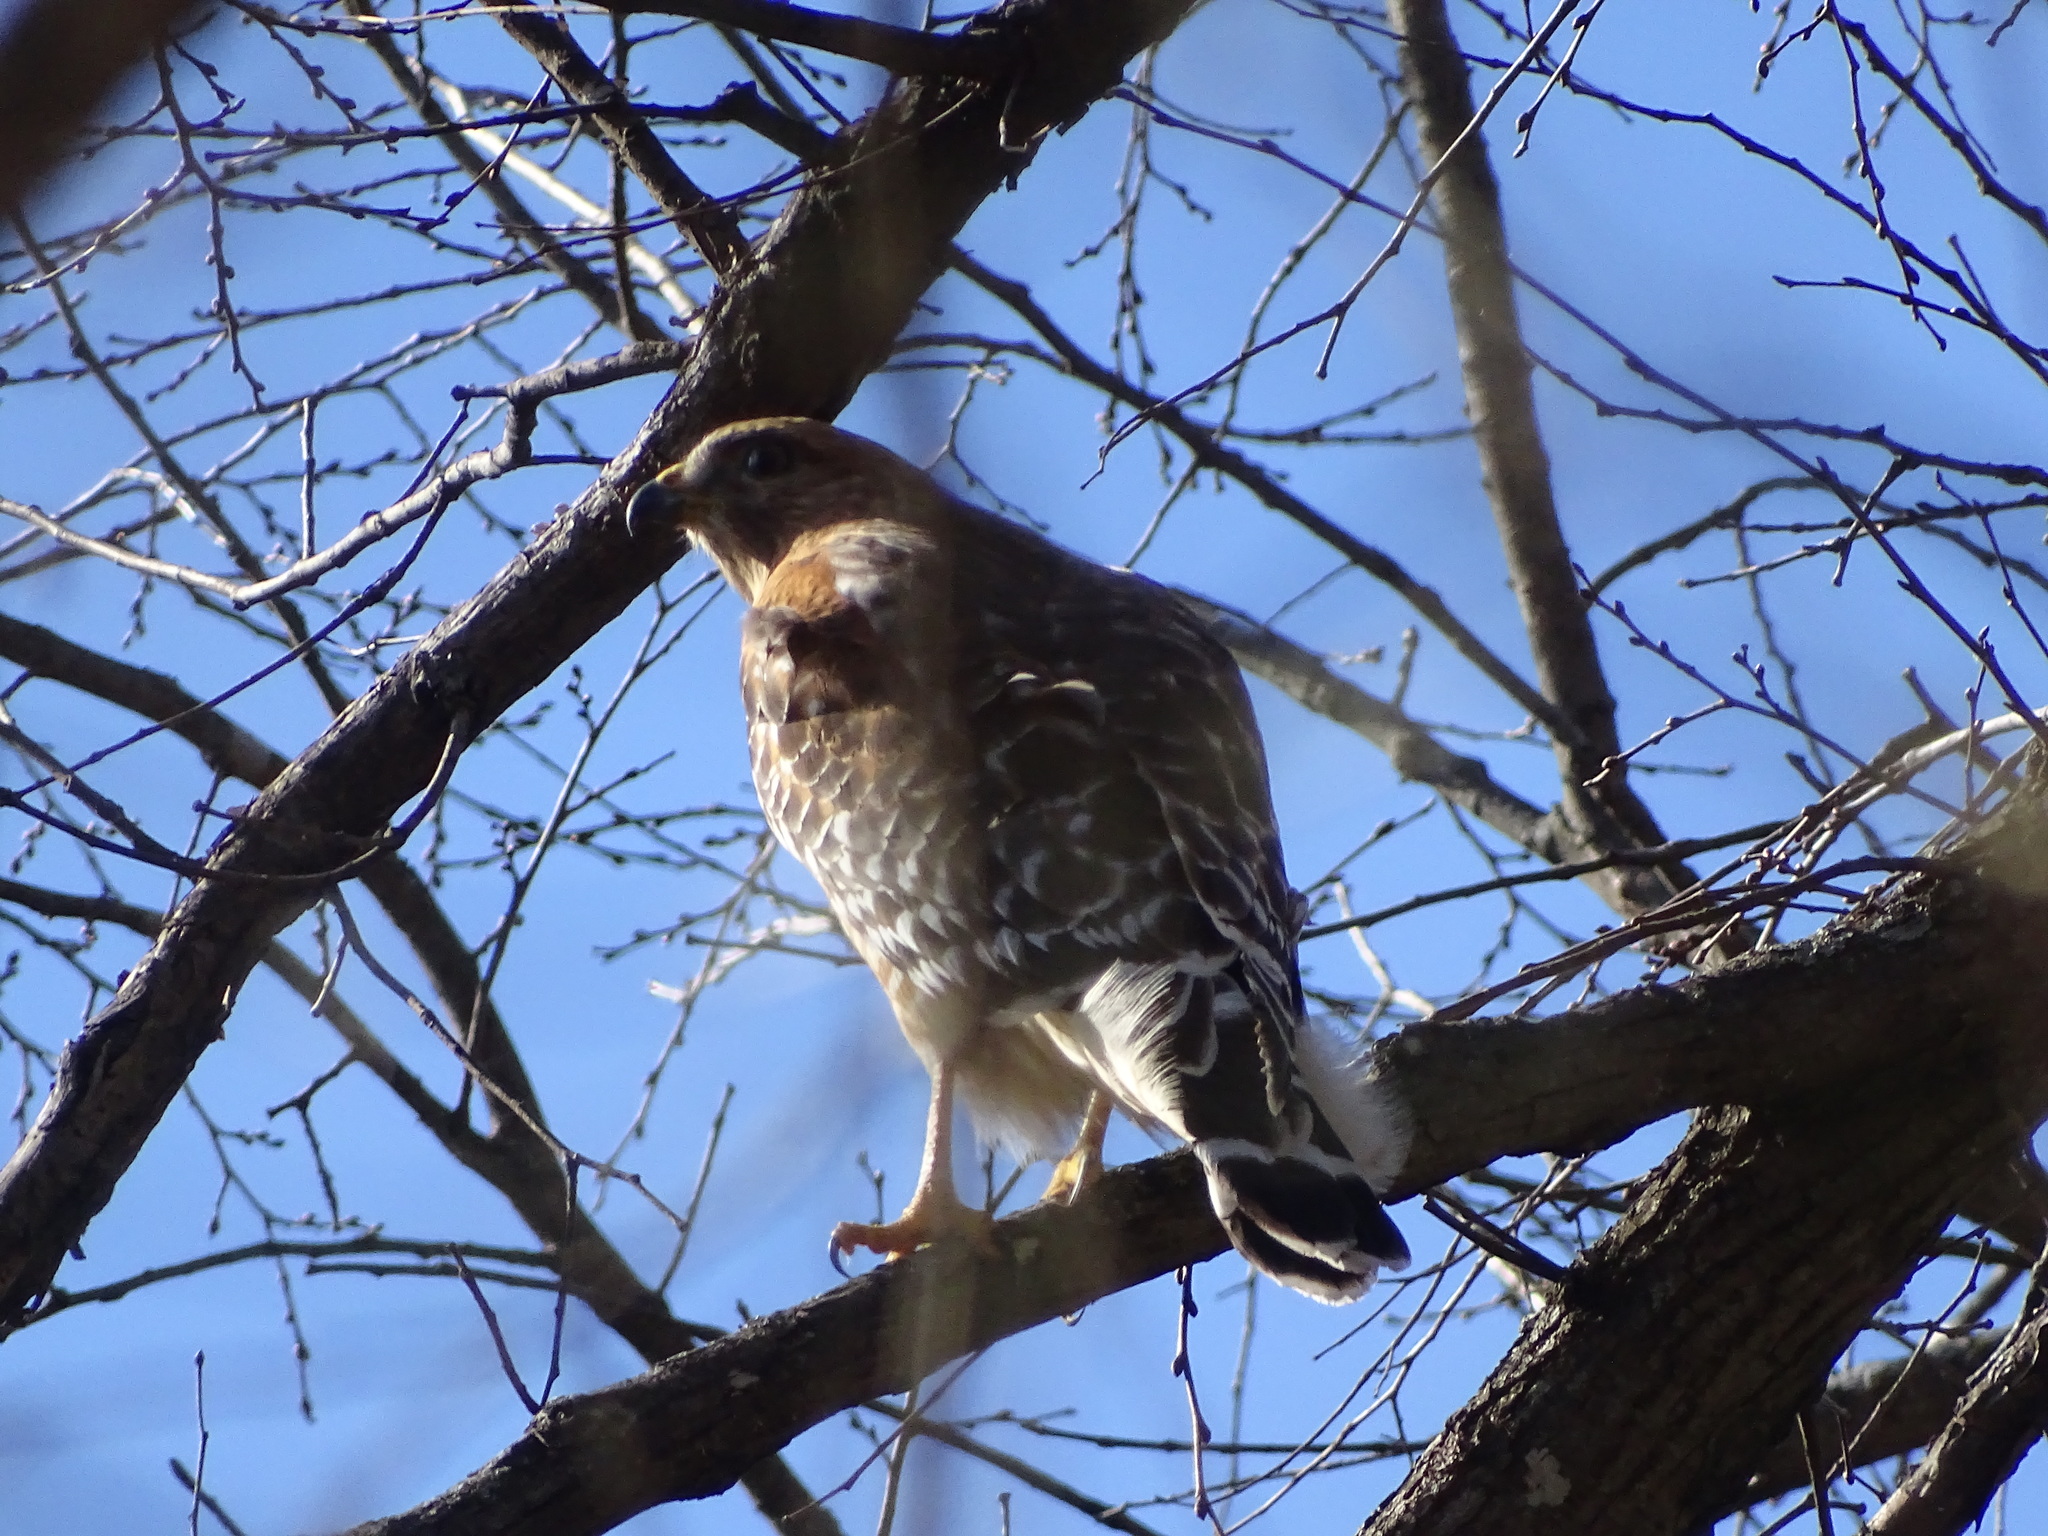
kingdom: Animalia
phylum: Chordata
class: Aves
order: Accipitriformes
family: Accipitridae
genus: Buteo
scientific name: Buteo lineatus
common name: Red-shouldered hawk
